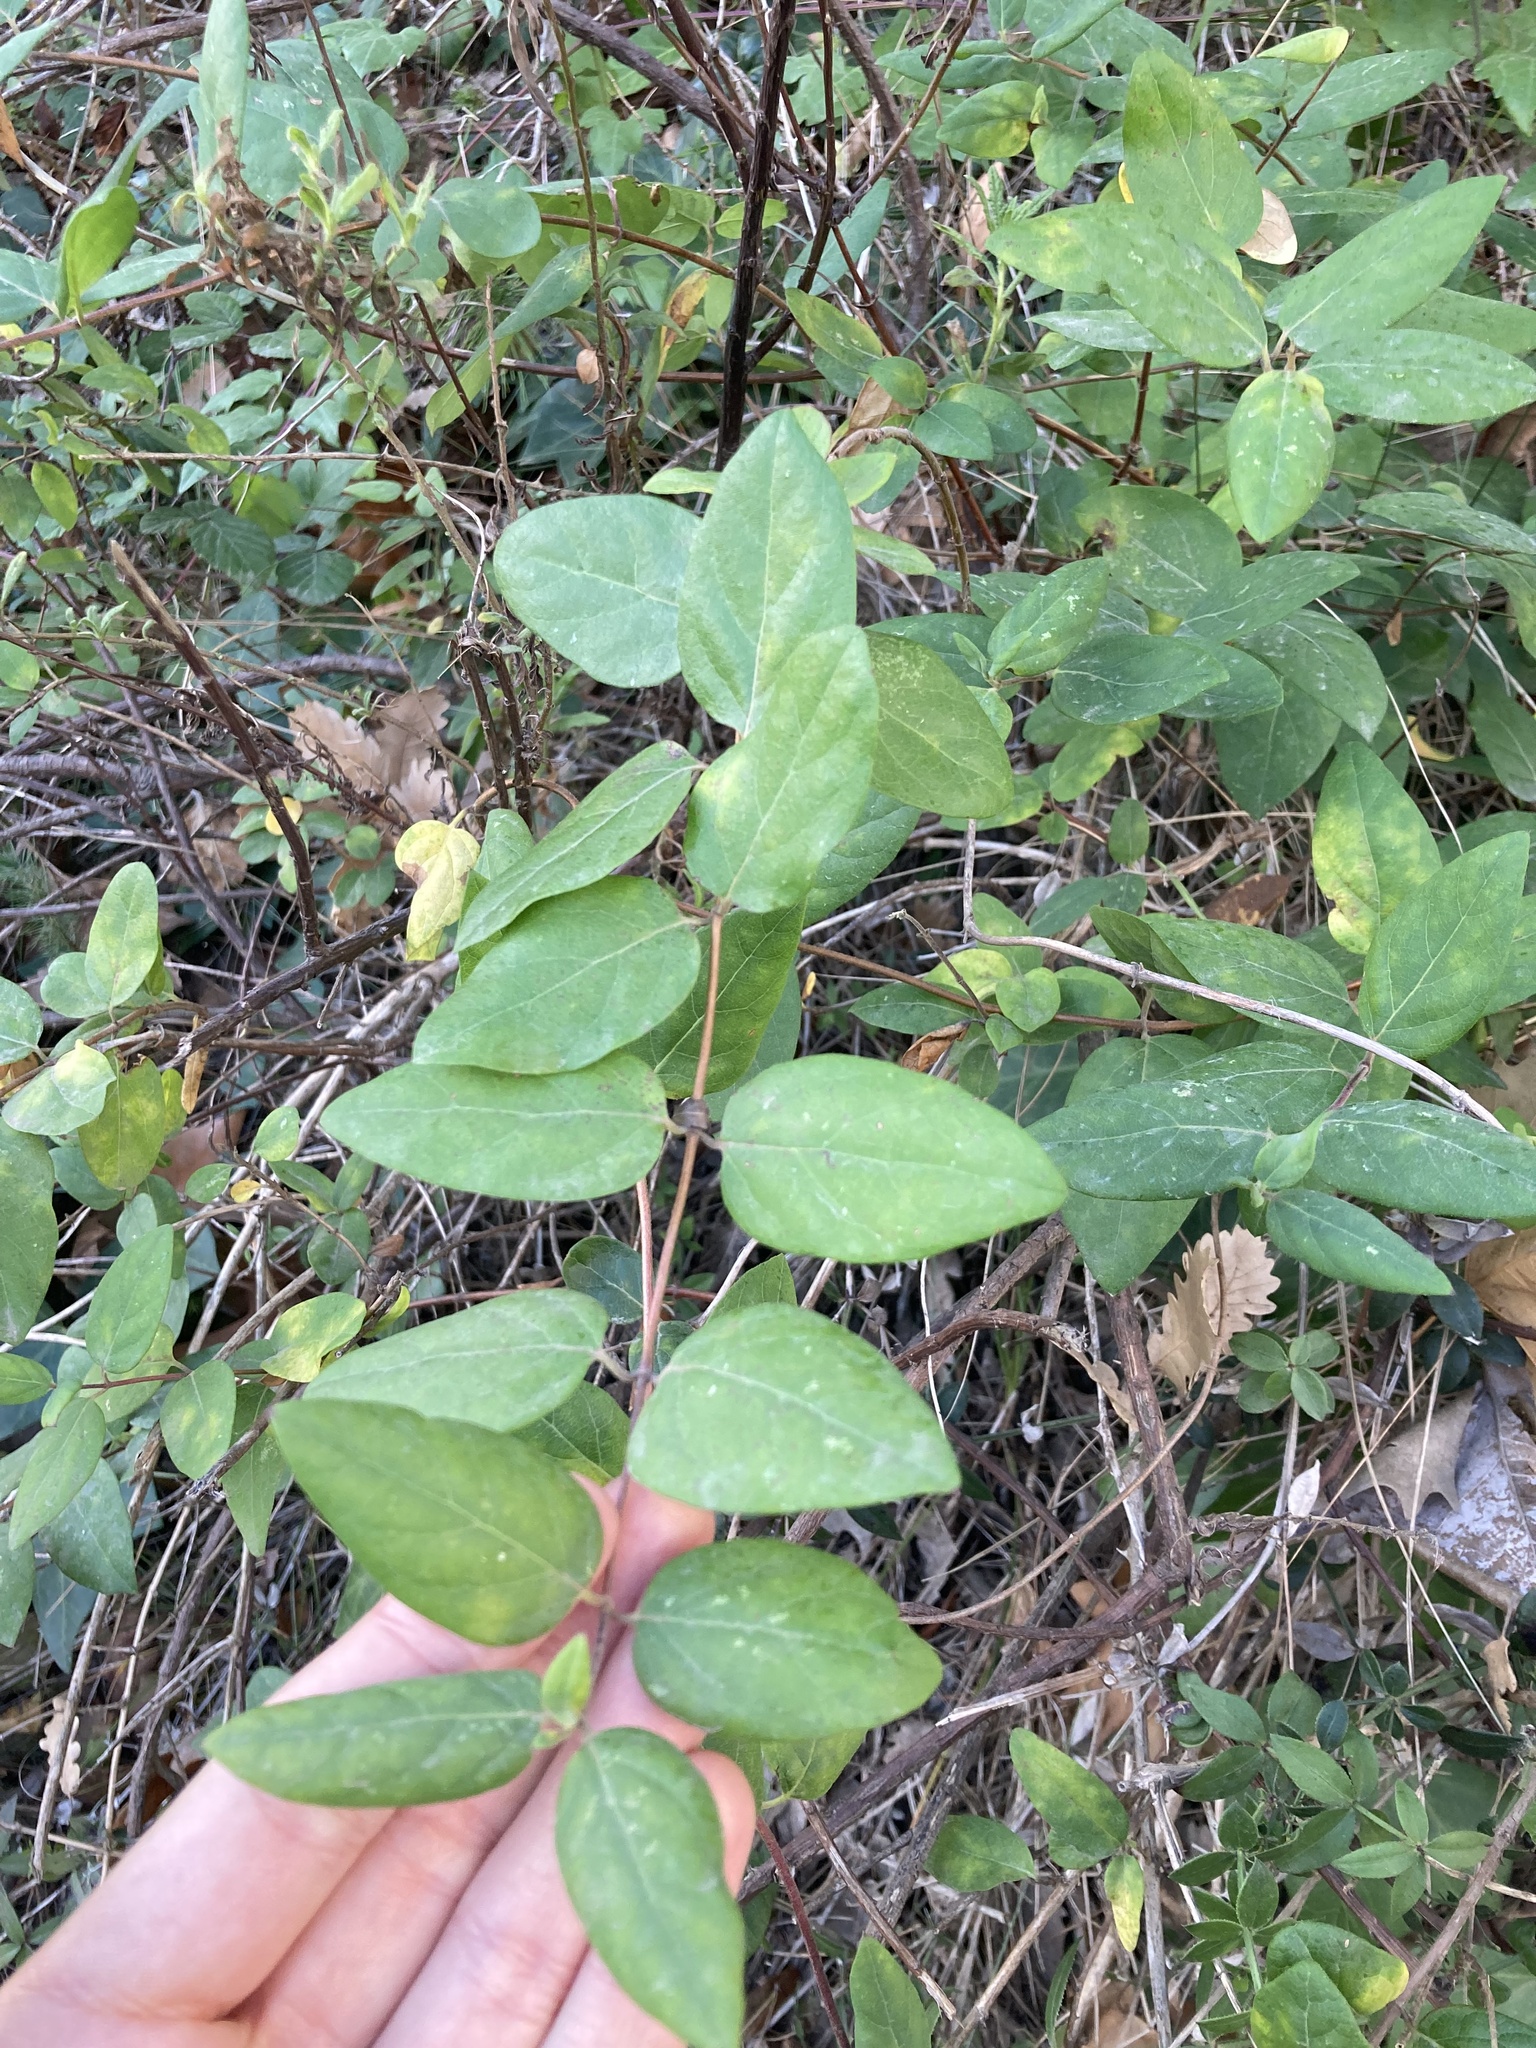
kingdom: Plantae
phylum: Tracheophyta
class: Magnoliopsida
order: Dipsacales
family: Caprifoliaceae
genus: Lonicera
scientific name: Lonicera japonica
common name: Japanese honeysuckle
